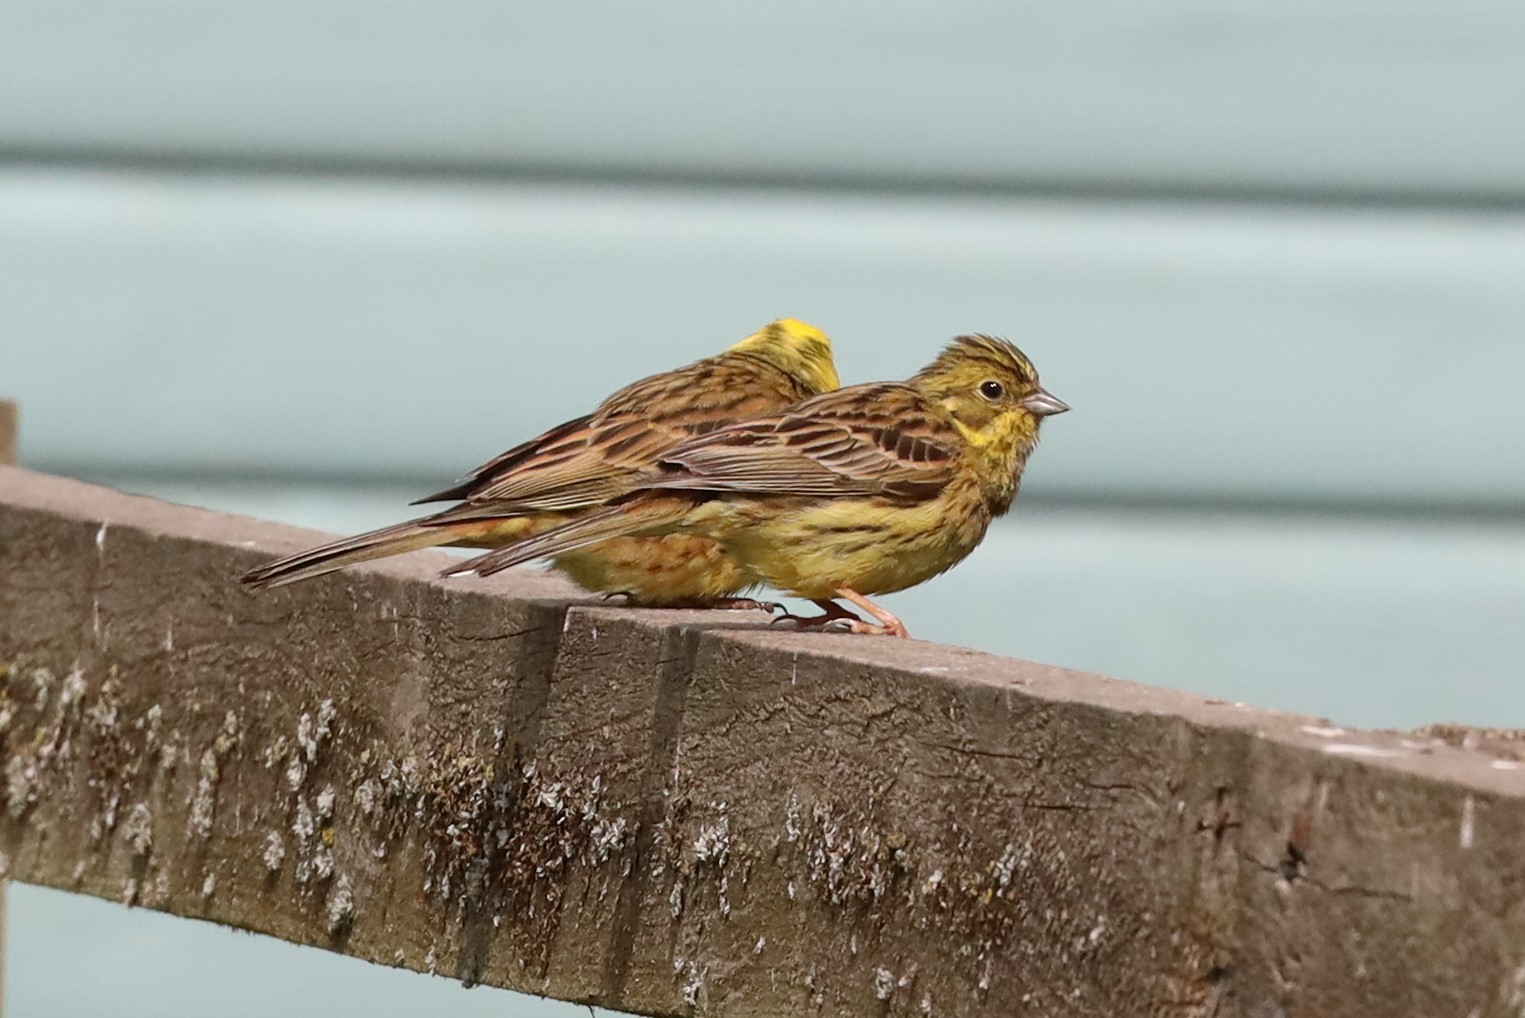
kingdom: Animalia
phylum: Chordata
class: Aves
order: Passeriformes
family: Emberizidae
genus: Emberiza
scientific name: Emberiza citrinella
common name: Yellowhammer
